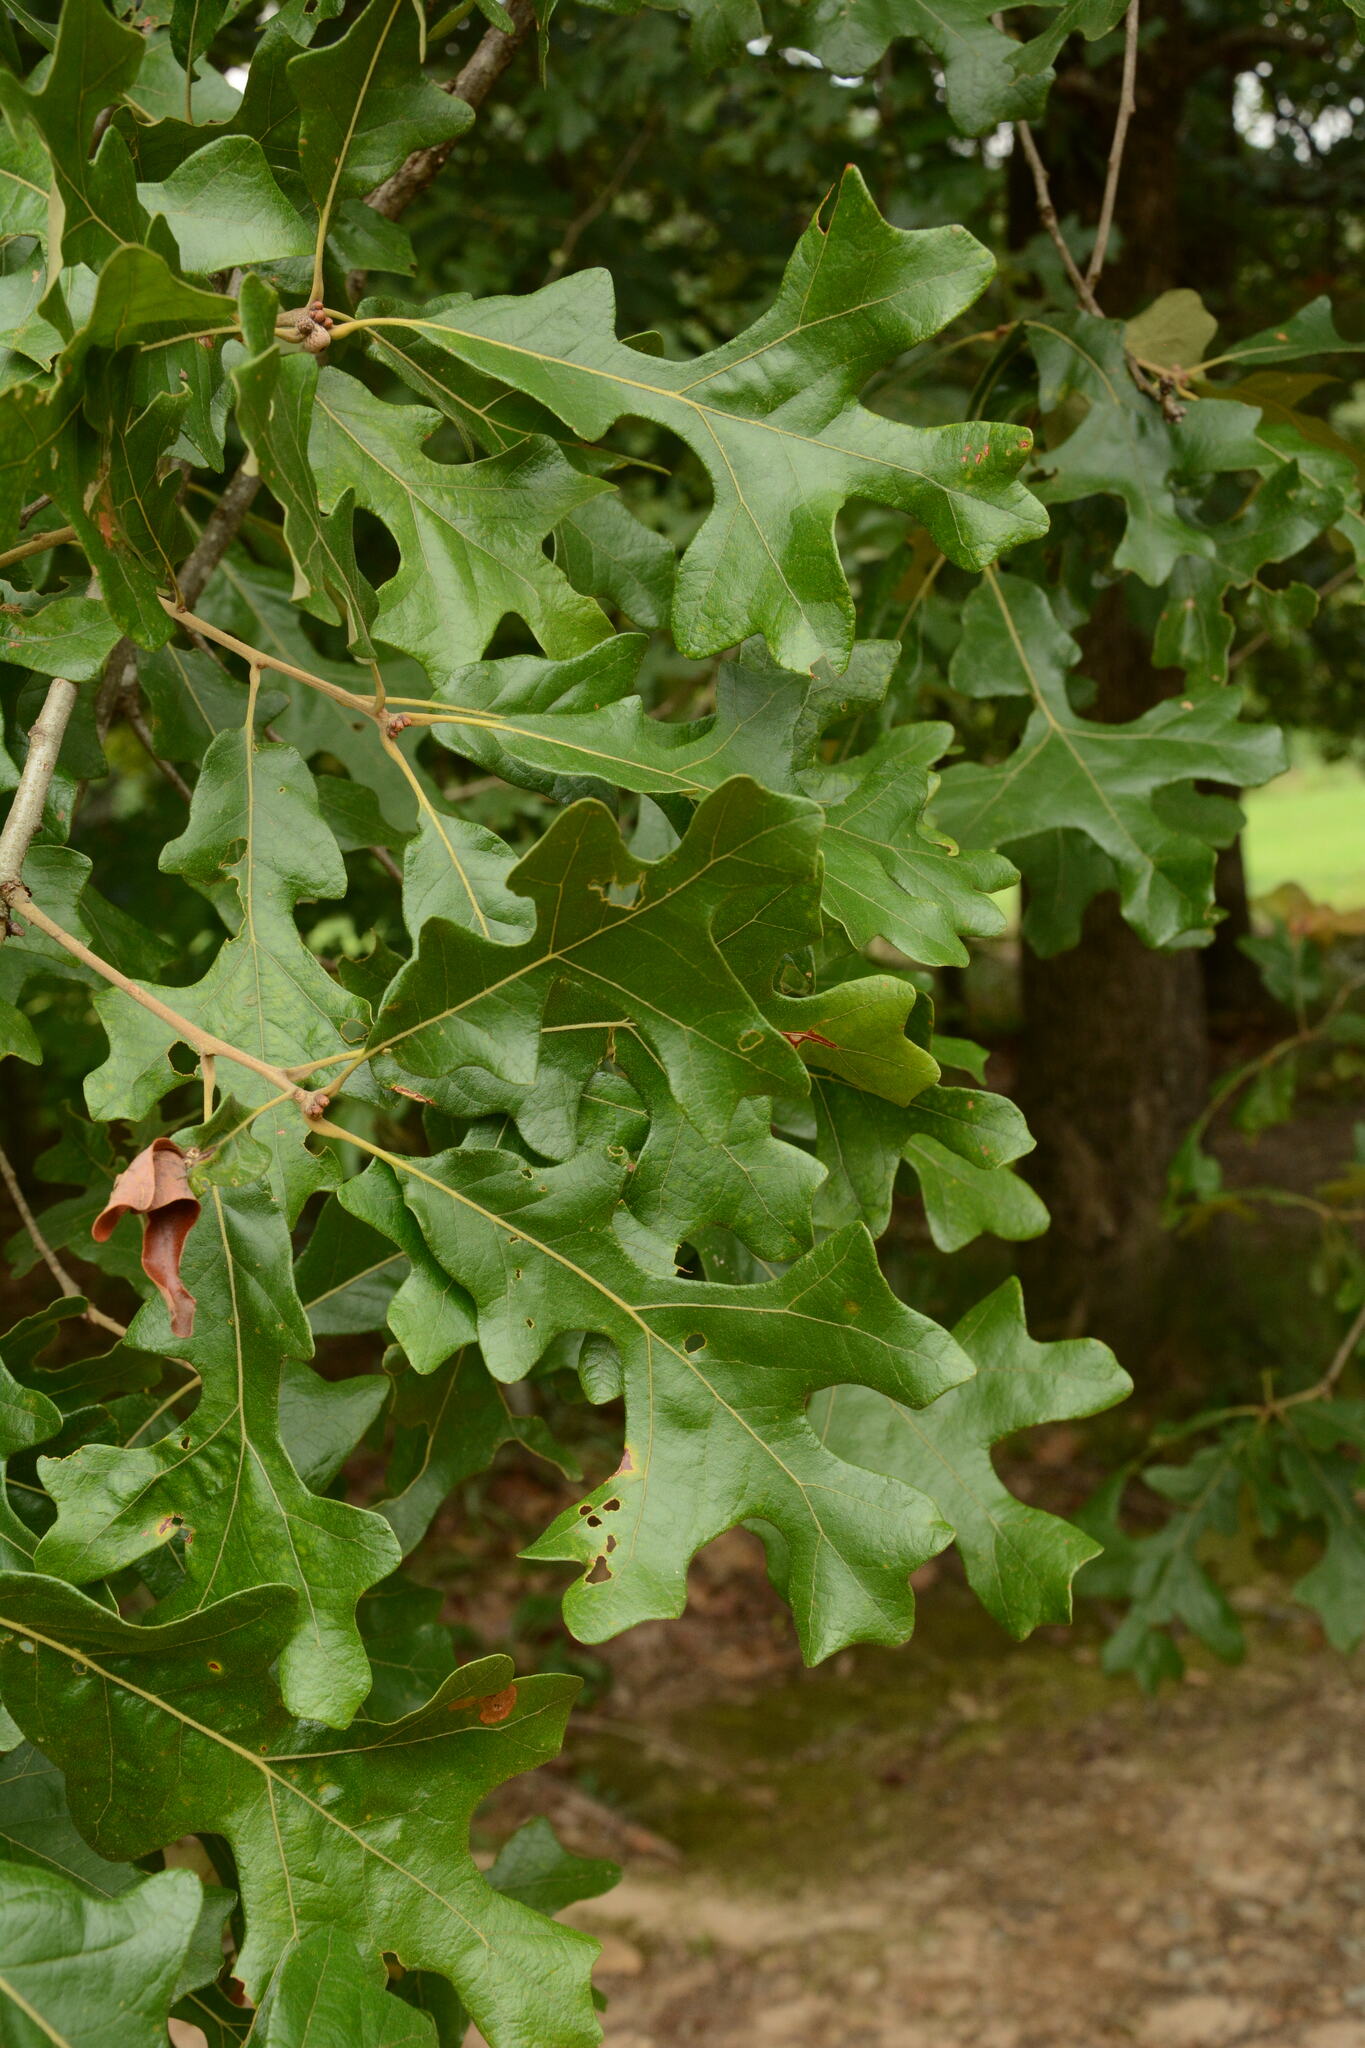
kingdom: Plantae
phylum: Tracheophyta
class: Magnoliopsida
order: Fagales
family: Fagaceae
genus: Quercus
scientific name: Quercus stellata
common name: Post oak
